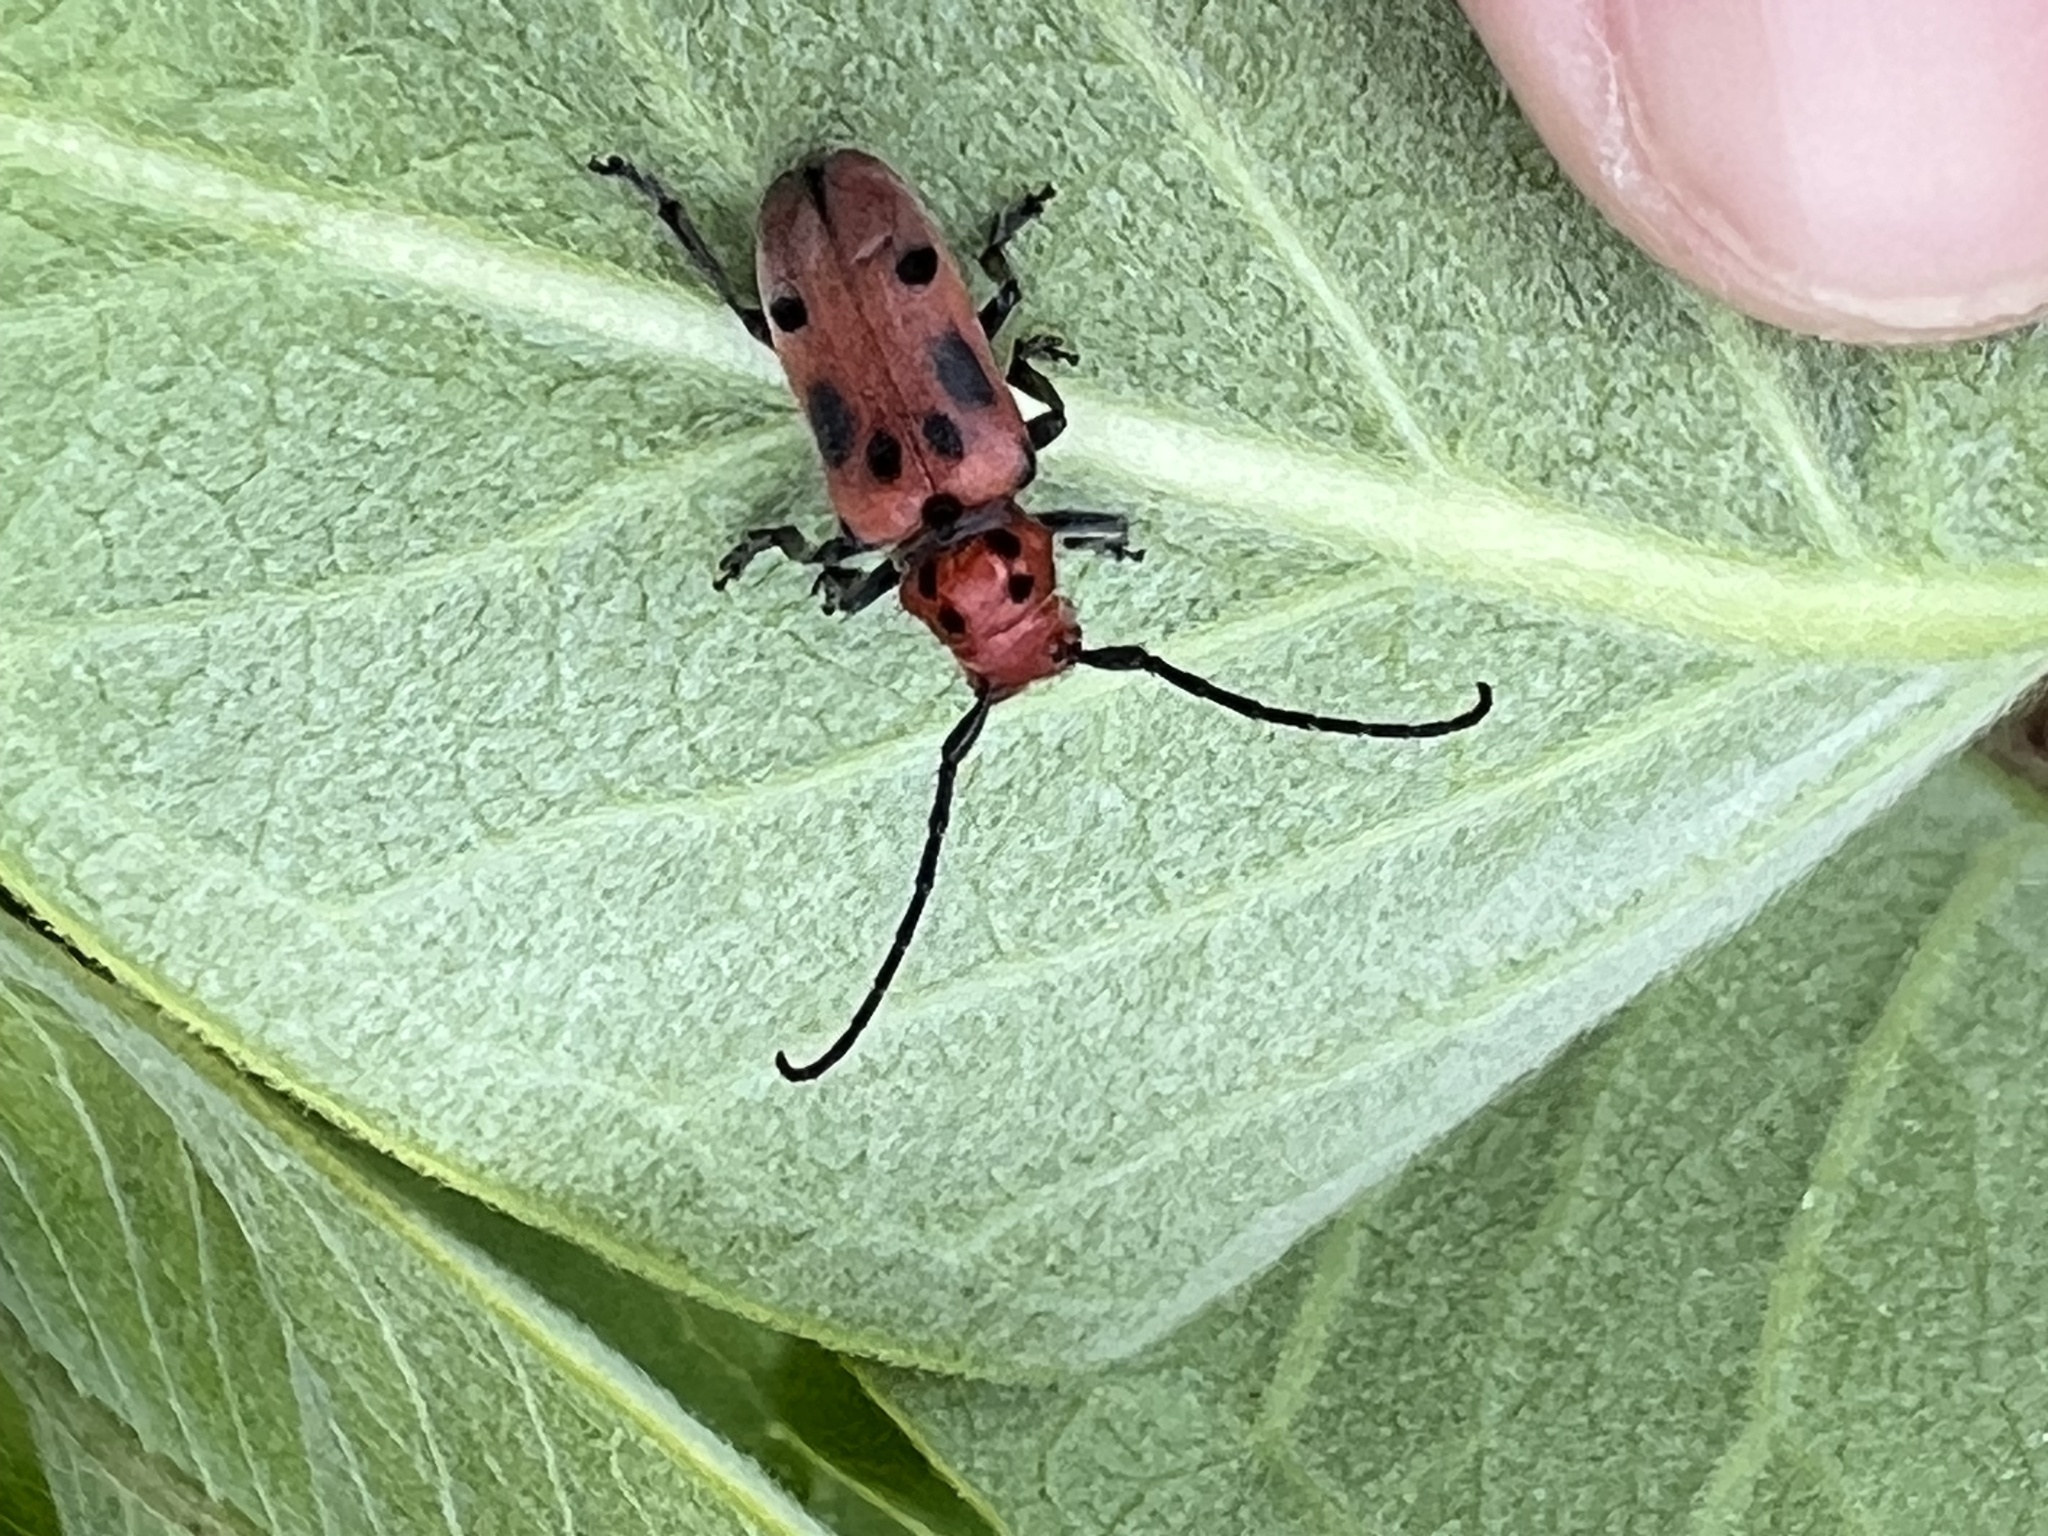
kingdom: Animalia
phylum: Arthropoda
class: Insecta
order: Coleoptera
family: Cerambycidae
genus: Tetraopes
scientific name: Tetraopes tetrophthalmus
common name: Red milkweed beetle
